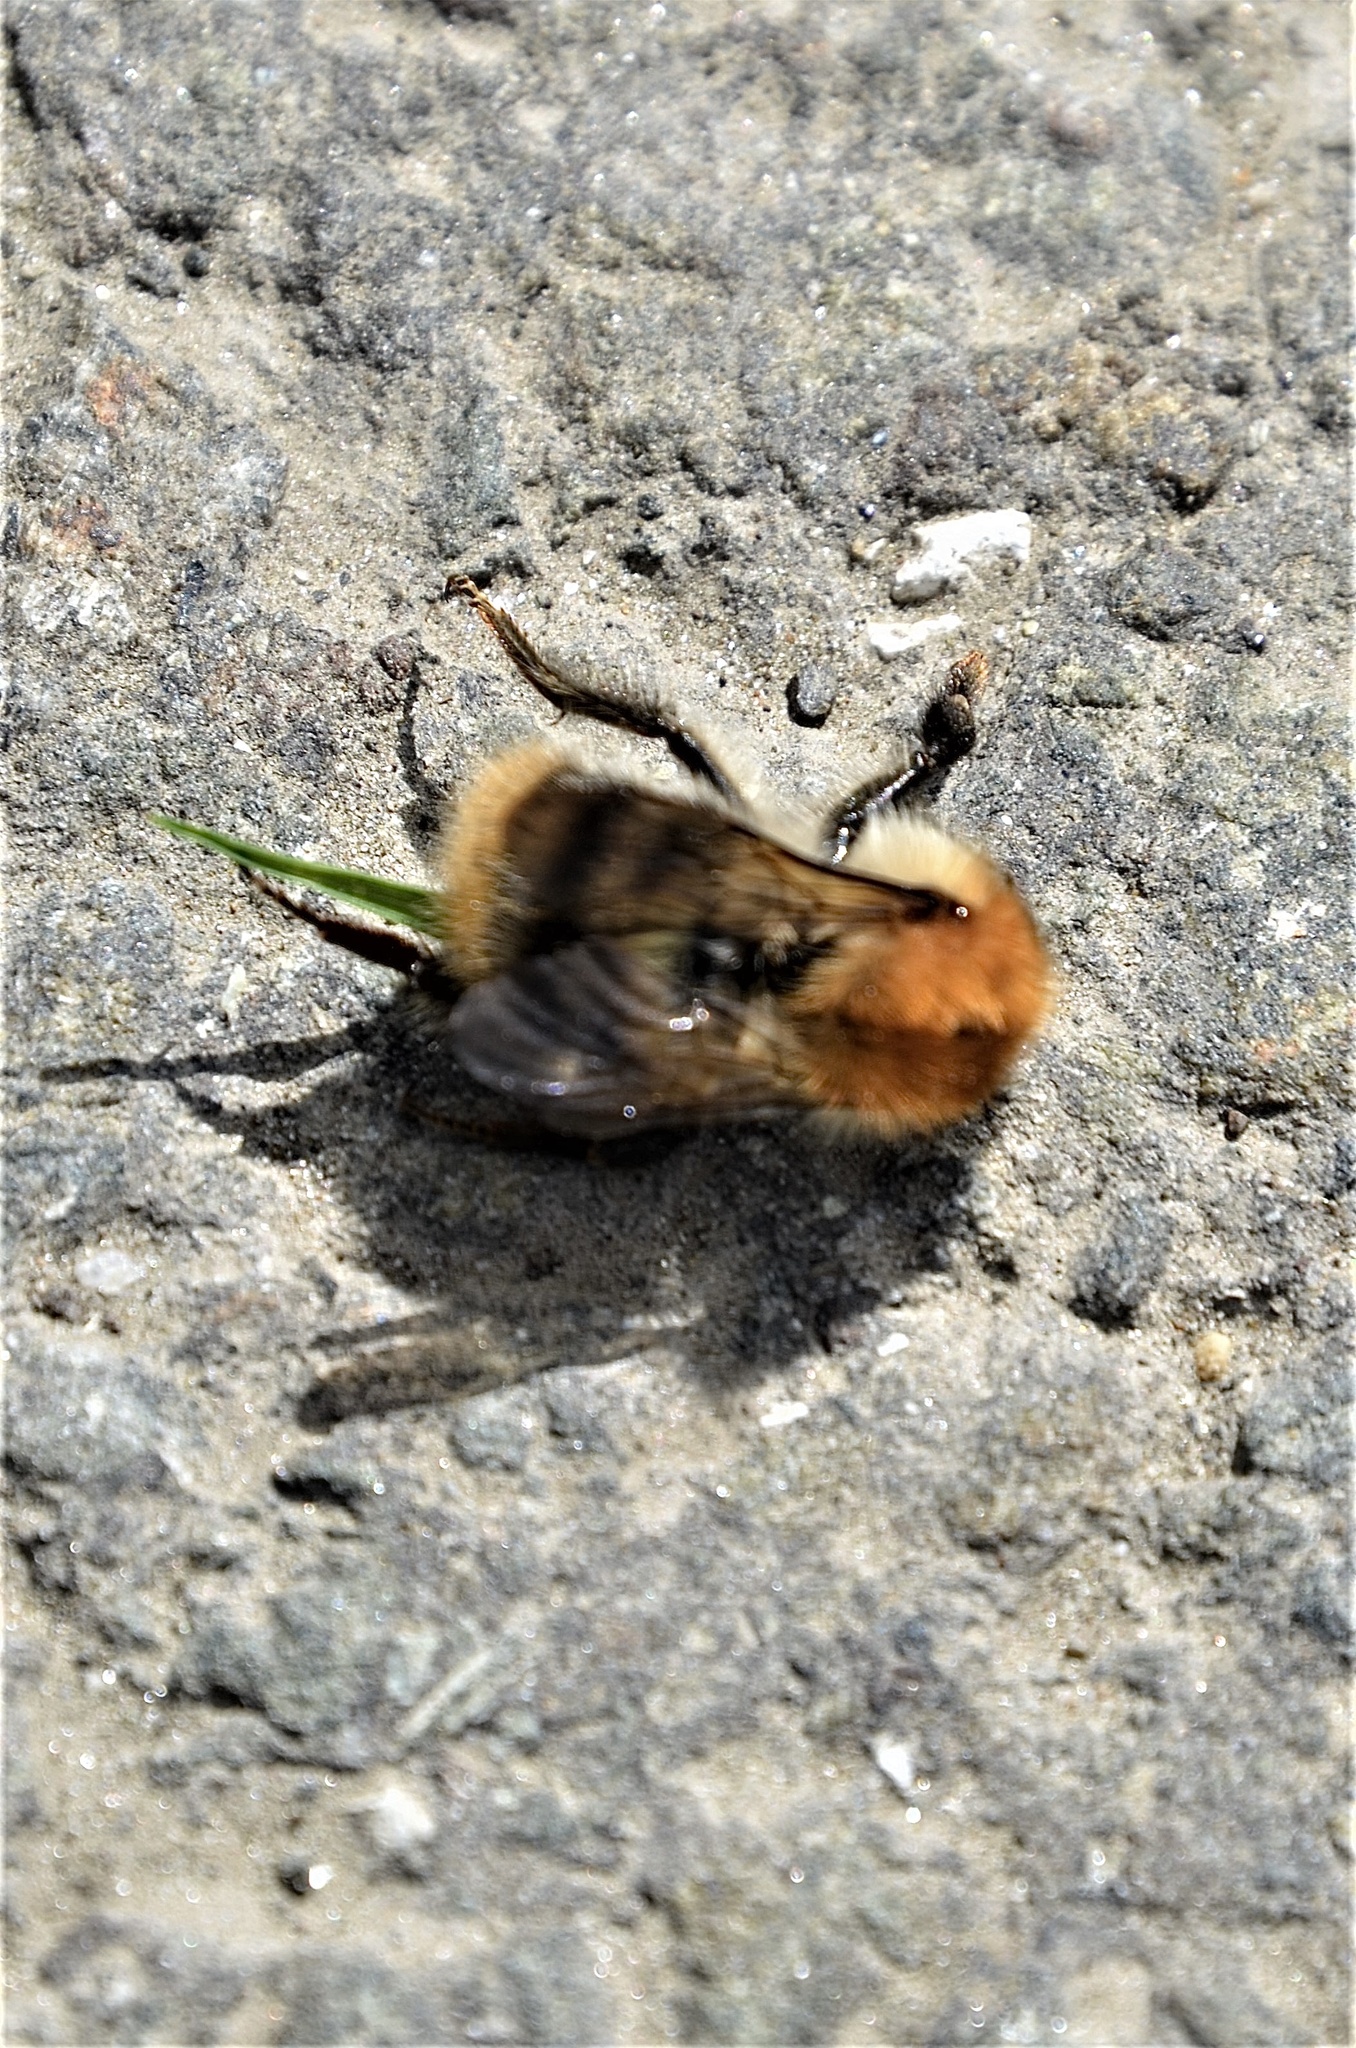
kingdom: Animalia
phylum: Arthropoda
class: Insecta
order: Hymenoptera
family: Apidae
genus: Bombus
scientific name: Bombus pascuorum
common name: Common carder bee
